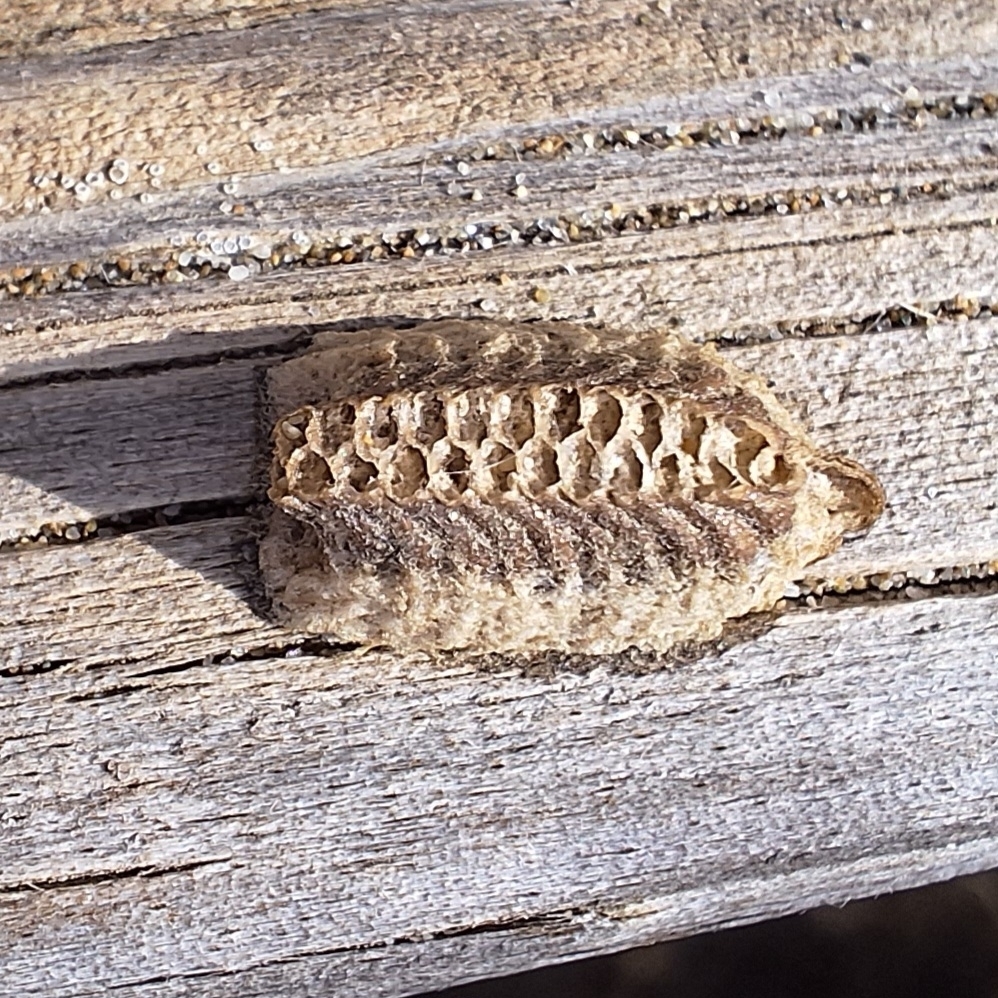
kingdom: Animalia
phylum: Arthropoda
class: Insecta
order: Mantodea
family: Eremiaphilidae
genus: Iris
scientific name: Iris oratoria
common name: Mediterranean mantis
